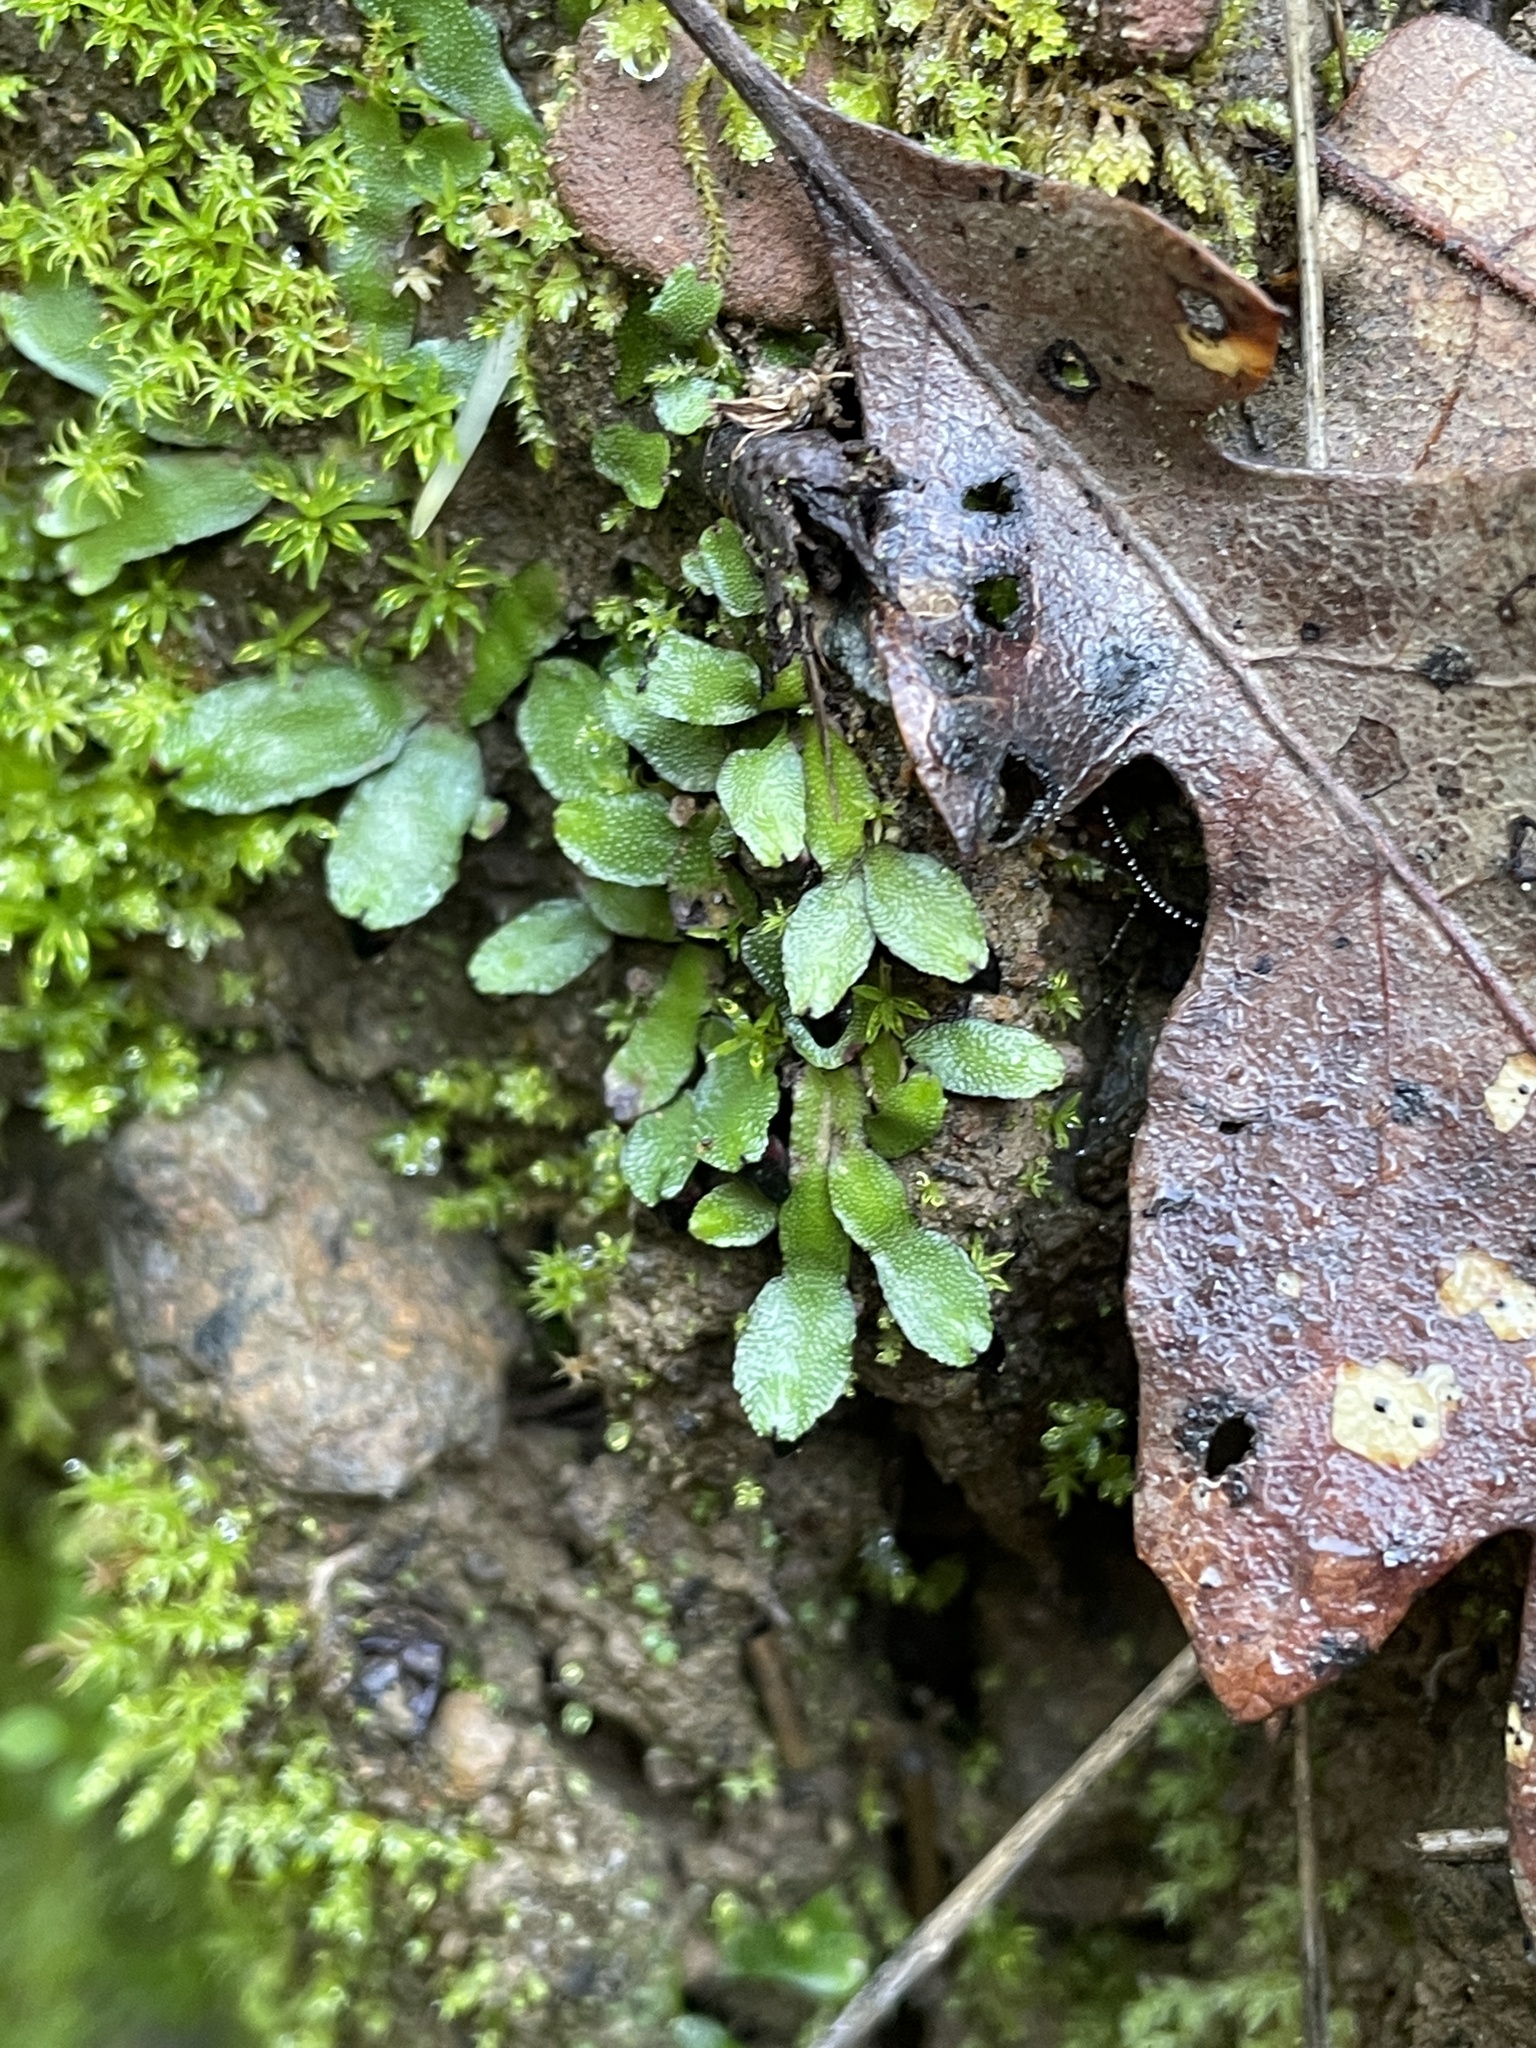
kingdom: Plantae
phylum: Marchantiophyta
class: Marchantiopsida
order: Marchantiales
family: Targioniaceae
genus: Targionia
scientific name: Targionia hypophylla
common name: Orobus-seed liverwort
